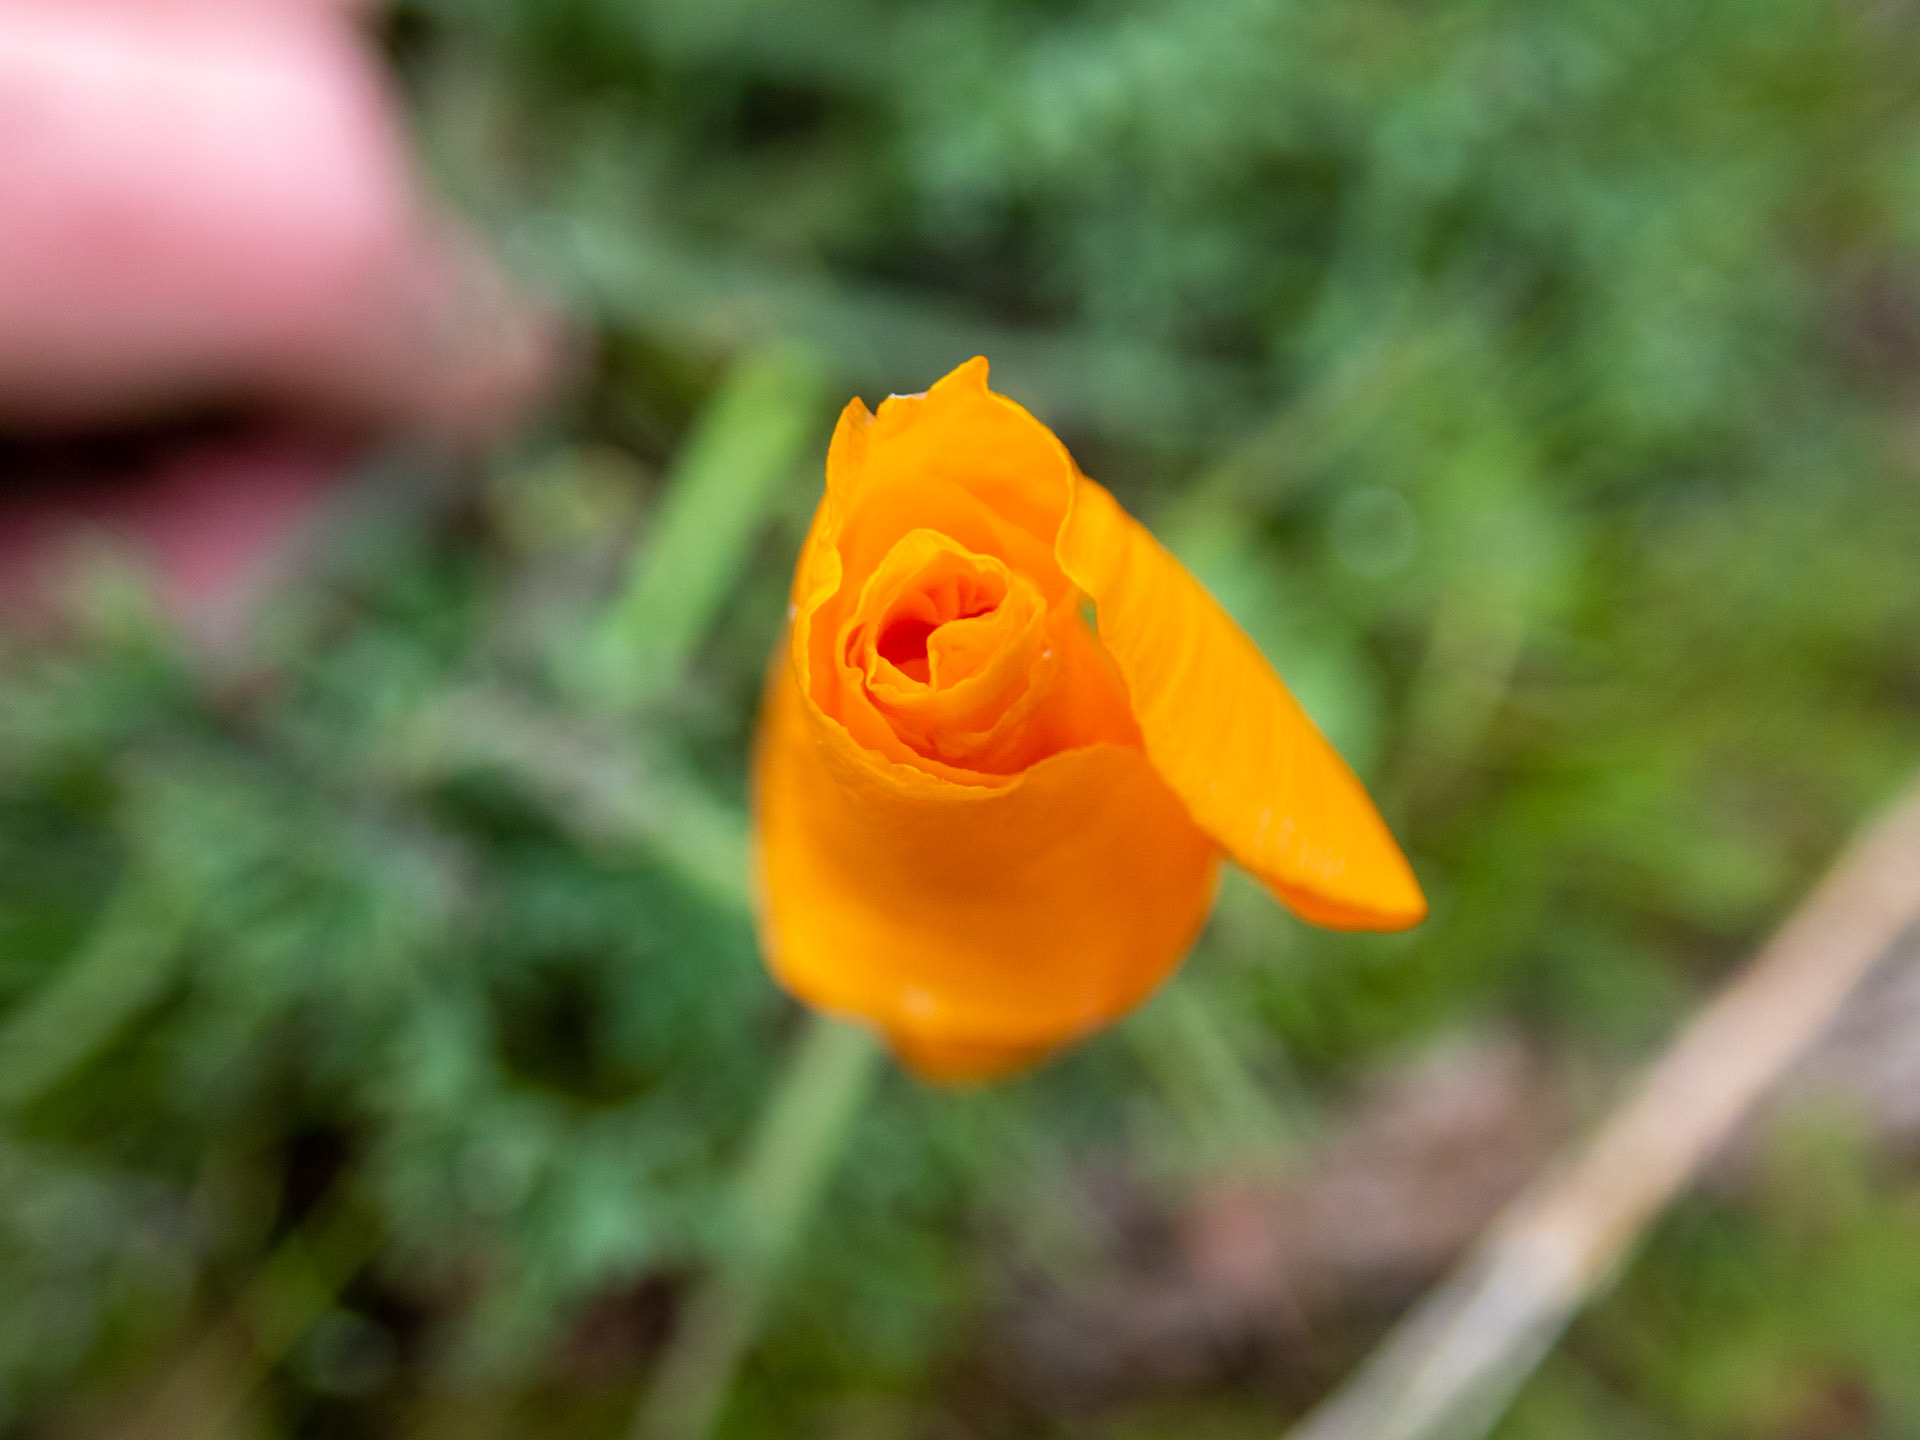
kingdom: Plantae
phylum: Tracheophyta
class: Magnoliopsida
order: Ranunculales
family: Papaveraceae
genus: Eschscholzia
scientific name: Eschscholzia californica
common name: California poppy
